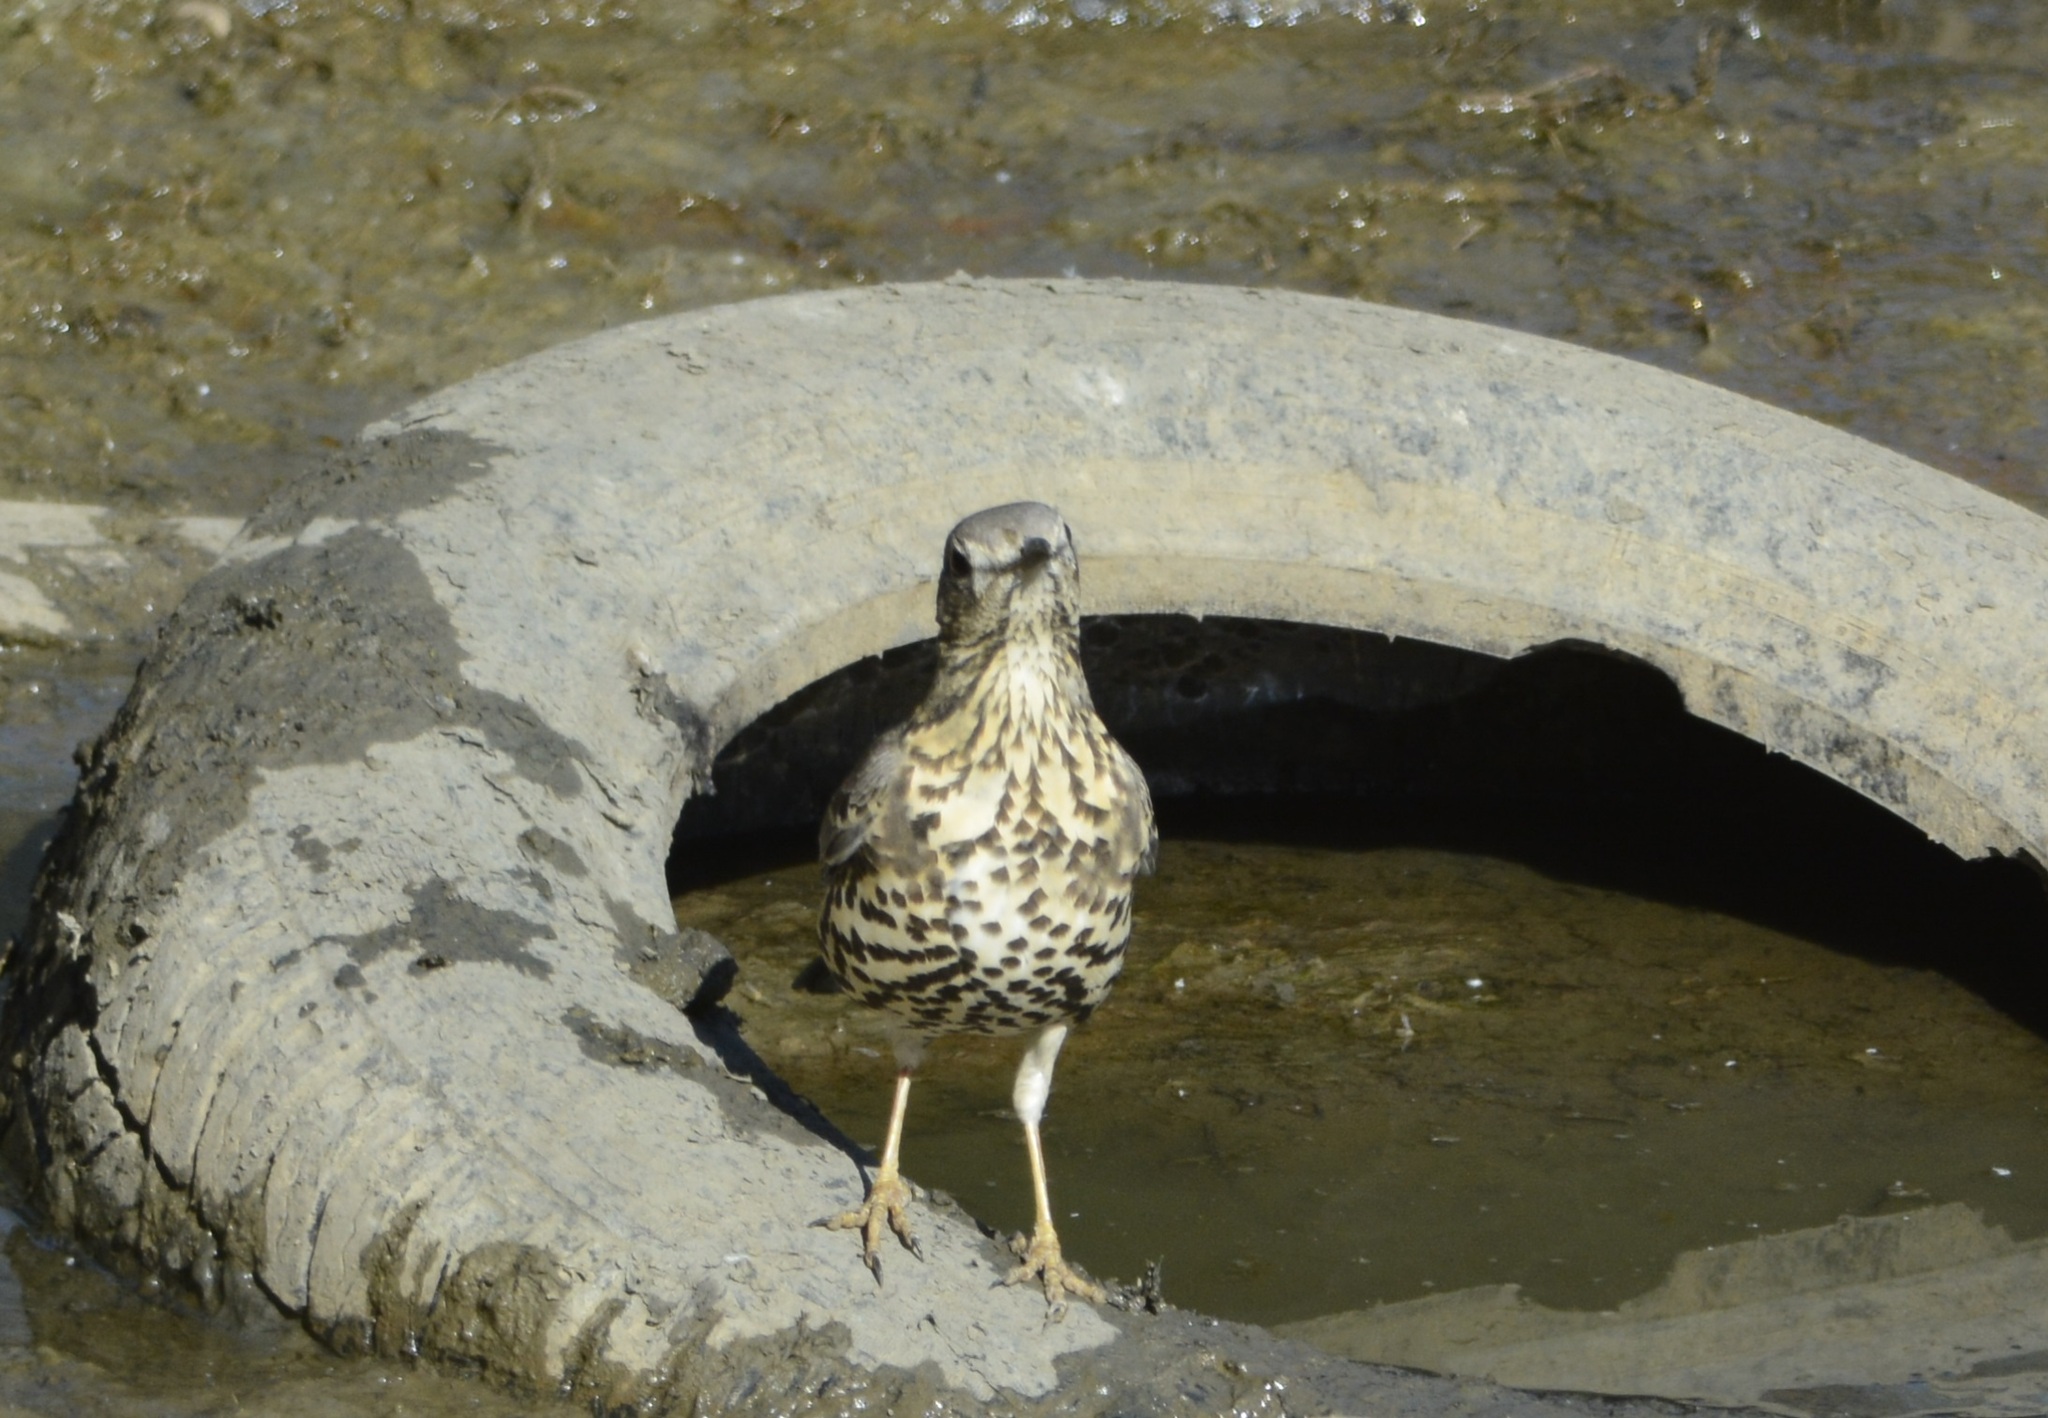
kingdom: Animalia
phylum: Chordata
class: Aves
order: Passeriformes
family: Turdidae
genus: Turdus
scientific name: Turdus viscivorus
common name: Mistle thrush
